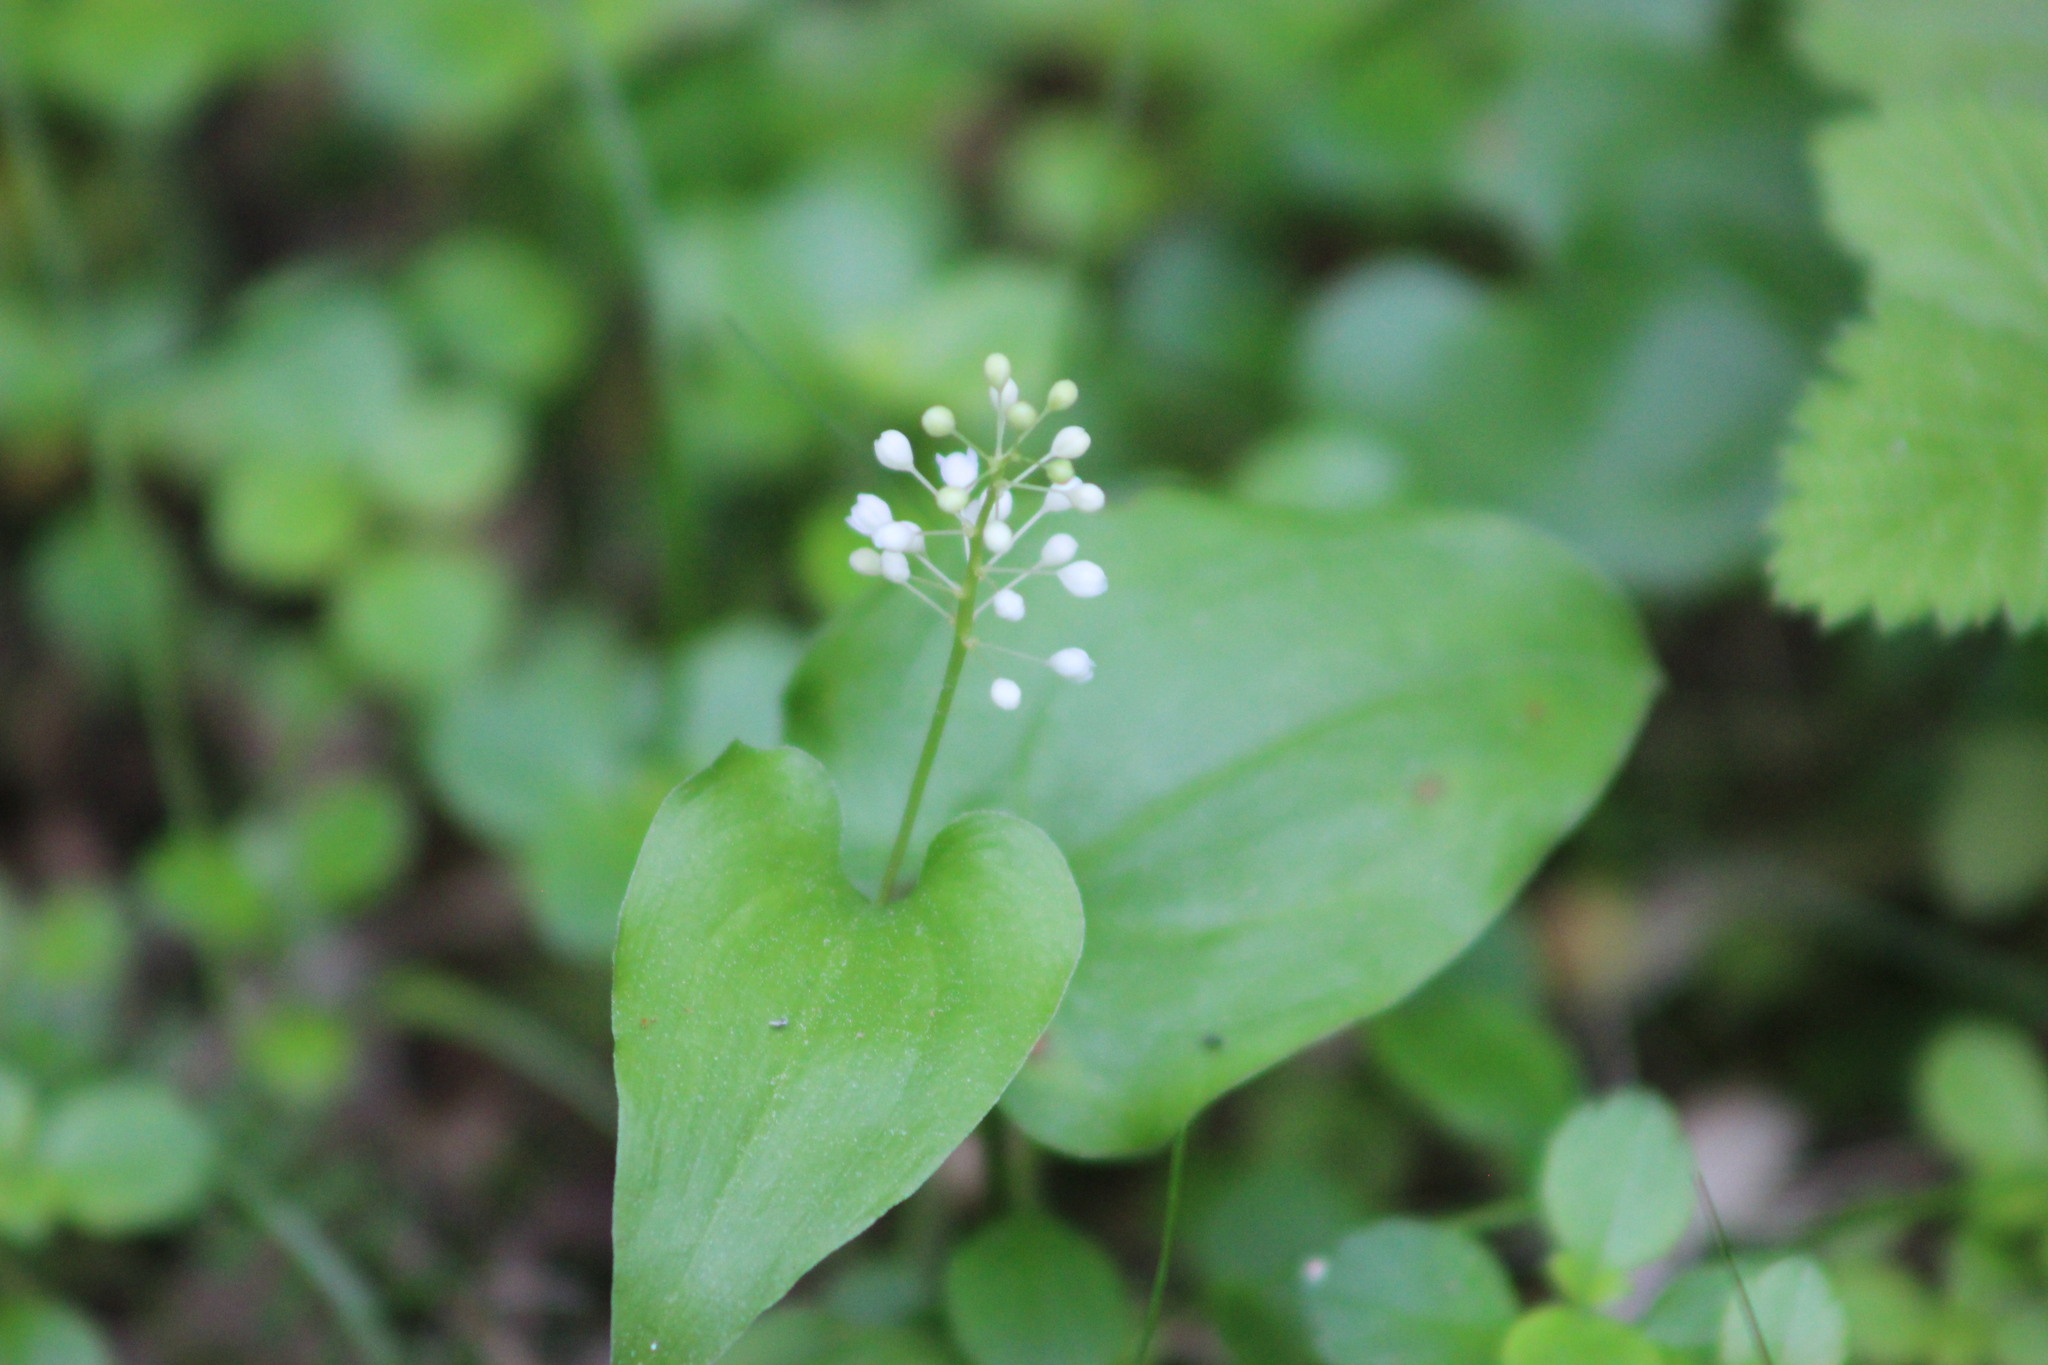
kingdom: Plantae
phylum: Tracheophyta
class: Liliopsida
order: Asparagales
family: Asparagaceae
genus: Maianthemum
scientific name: Maianthemum bifolium
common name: May lily
